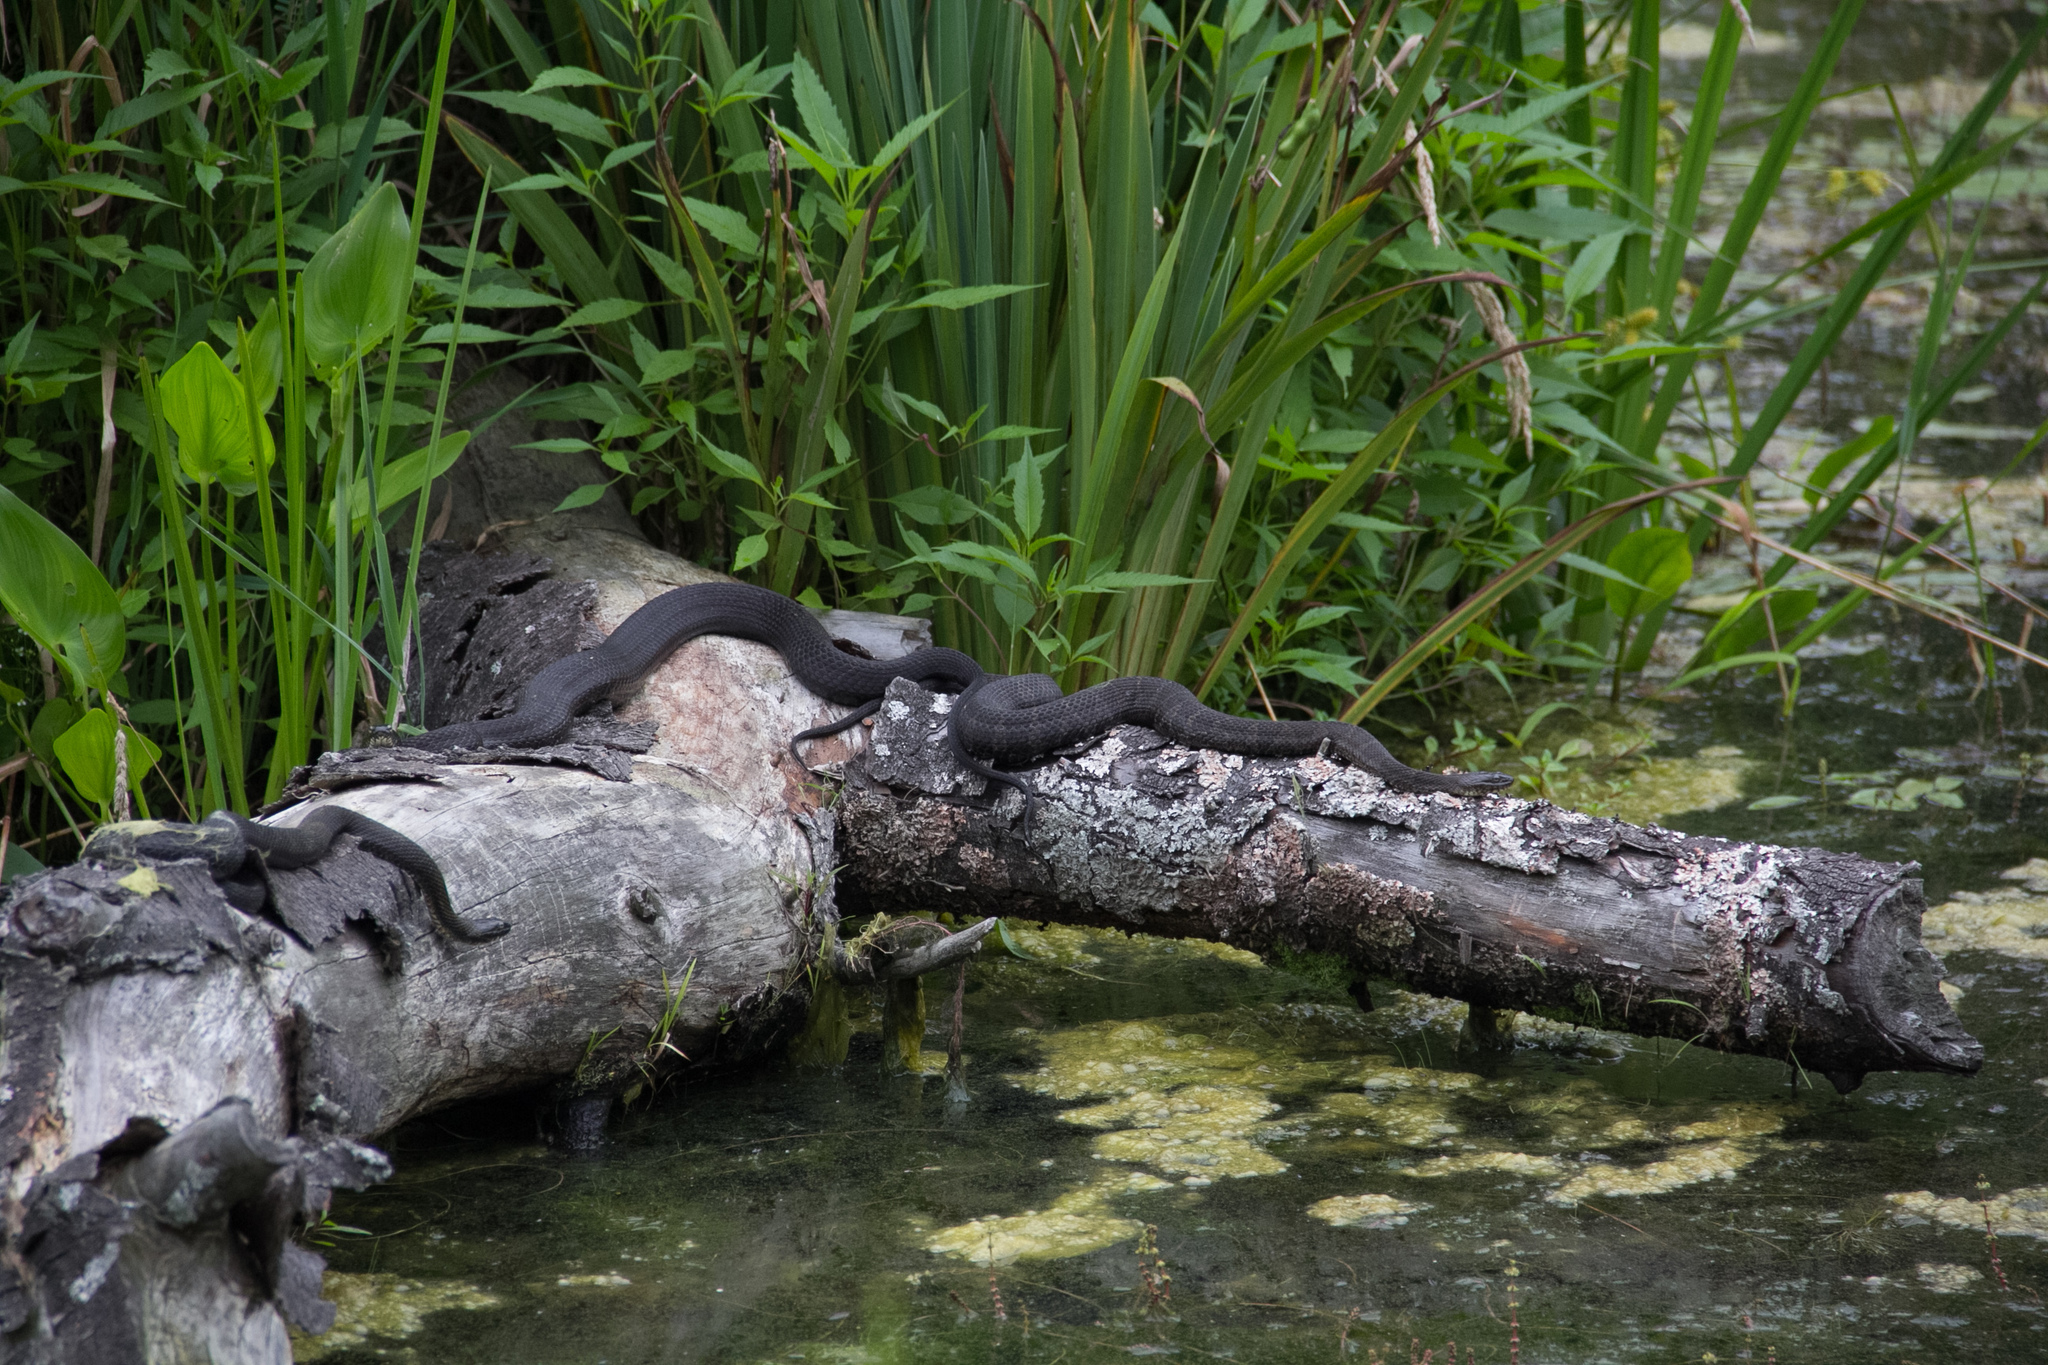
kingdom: Animalia
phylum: Chordata
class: Squamata
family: Colubridae
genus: Nerodia
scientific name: Nerodia sipedon
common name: Northern water snake
